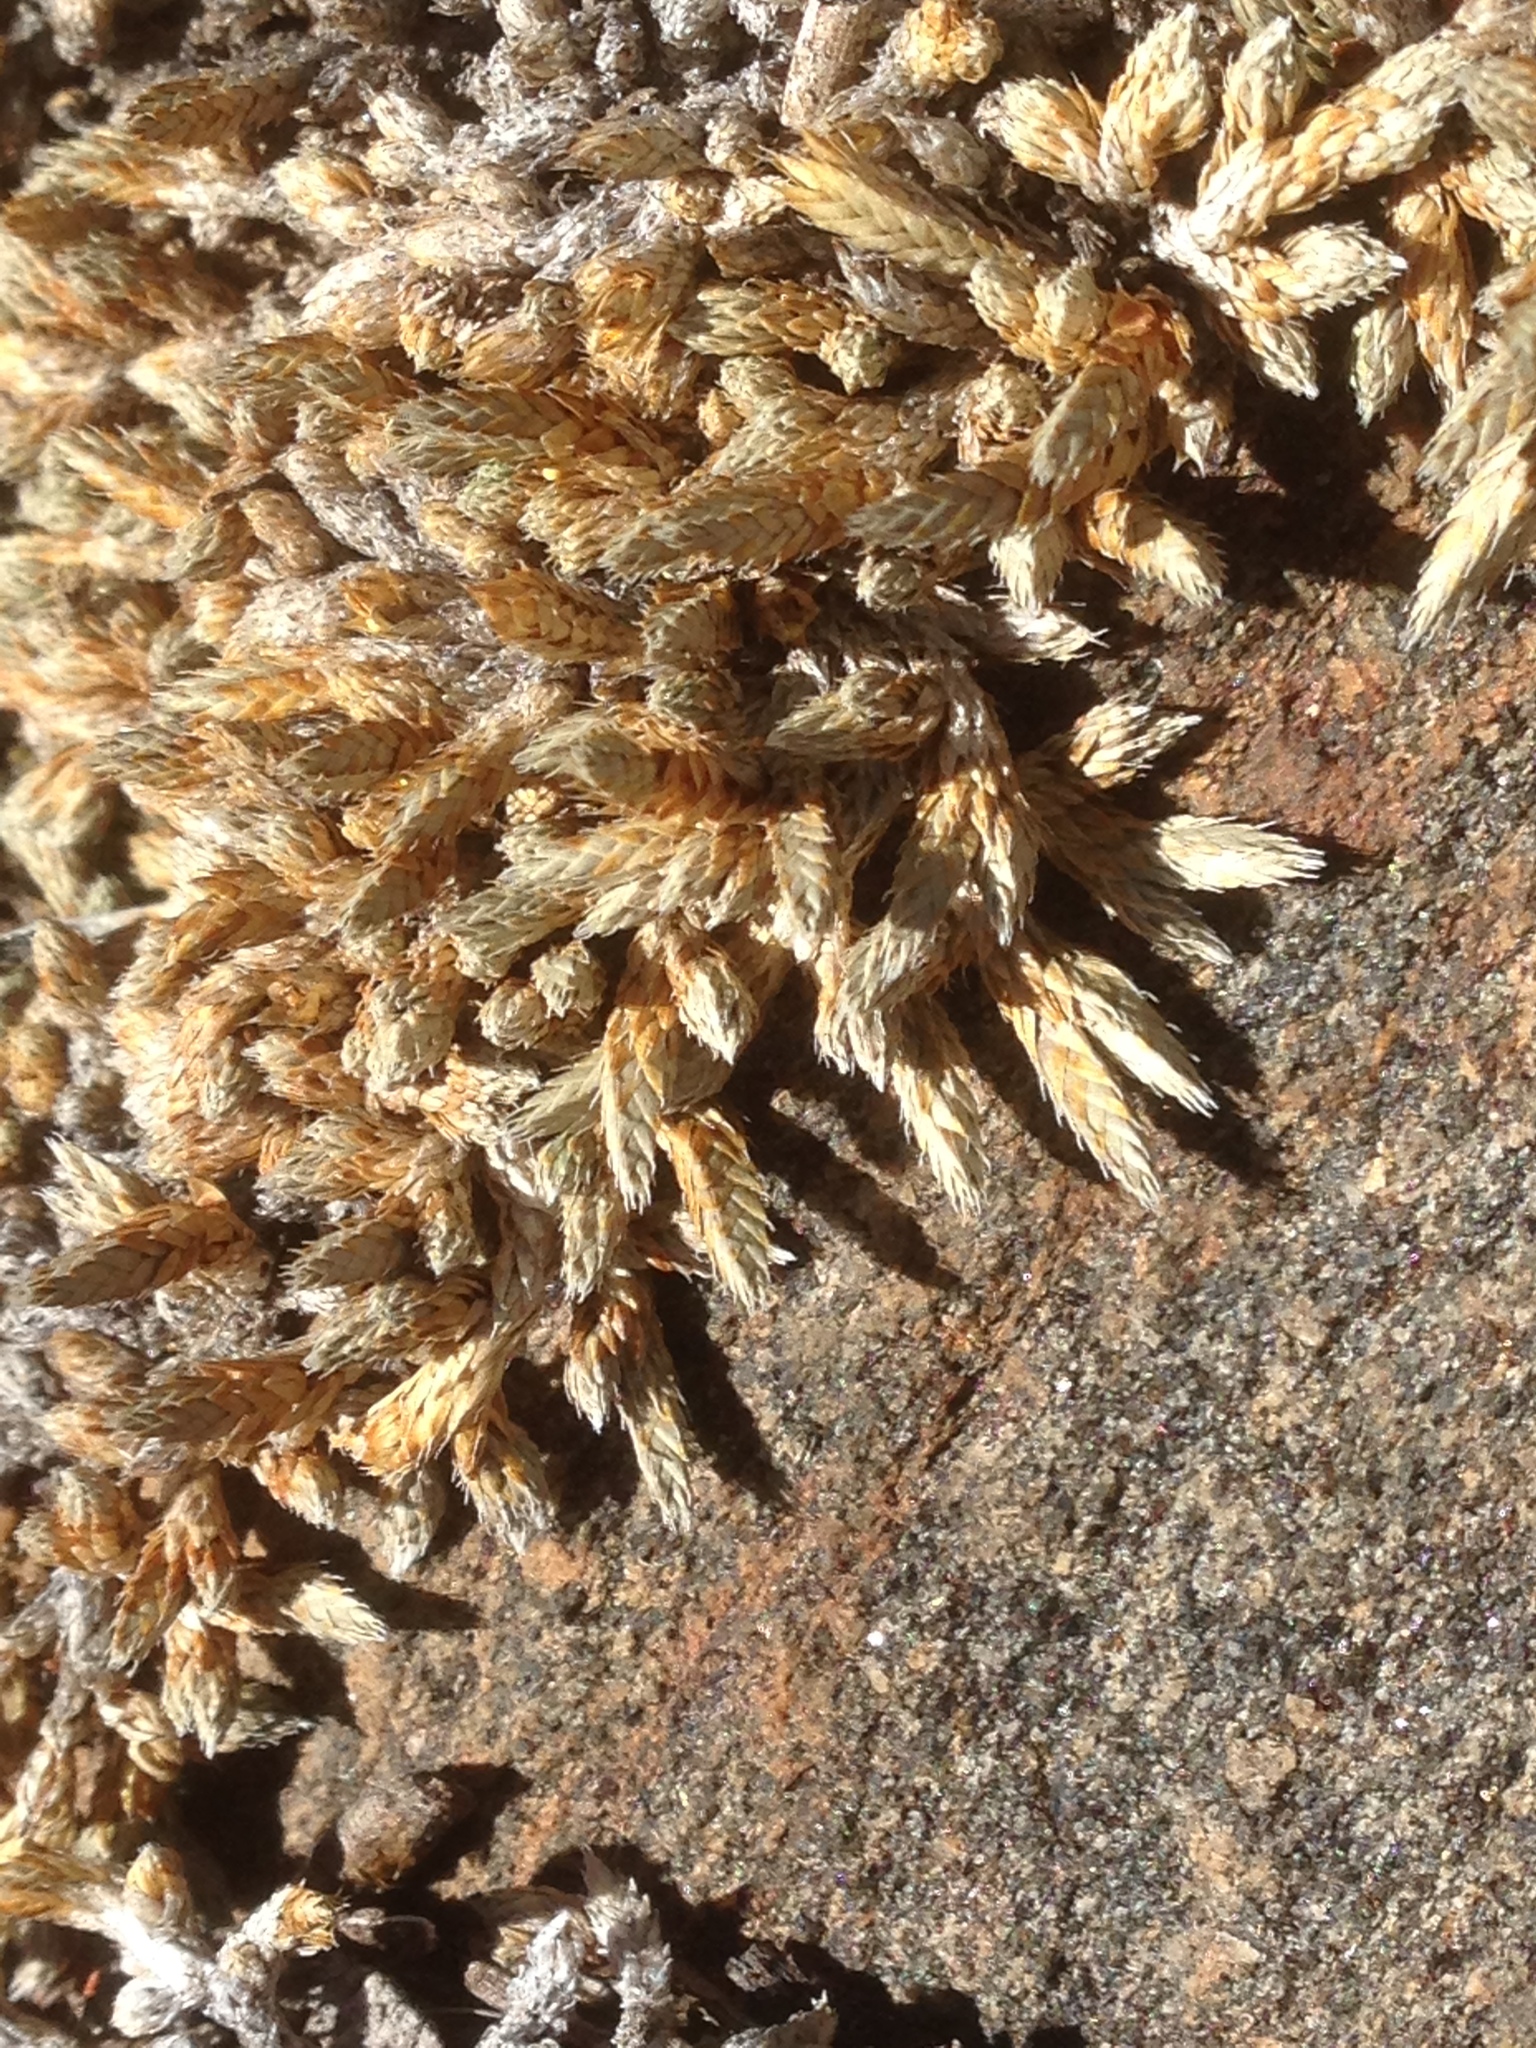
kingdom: Plantae
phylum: Tracheophyta
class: Lycopodiopsida
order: Selaginellales
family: Selaginellaceae
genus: Selaginella
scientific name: Selaginella asprella
